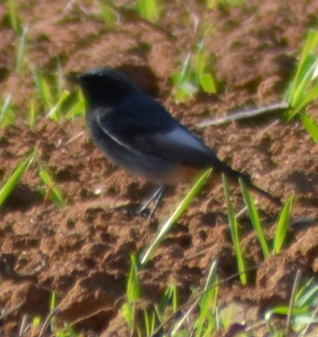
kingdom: Animalia
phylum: Chordata
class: Aves
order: Passeriformes
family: Muscicapidae
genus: Phoenicurus
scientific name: Phoenicurus ochruros
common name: Black redstart
